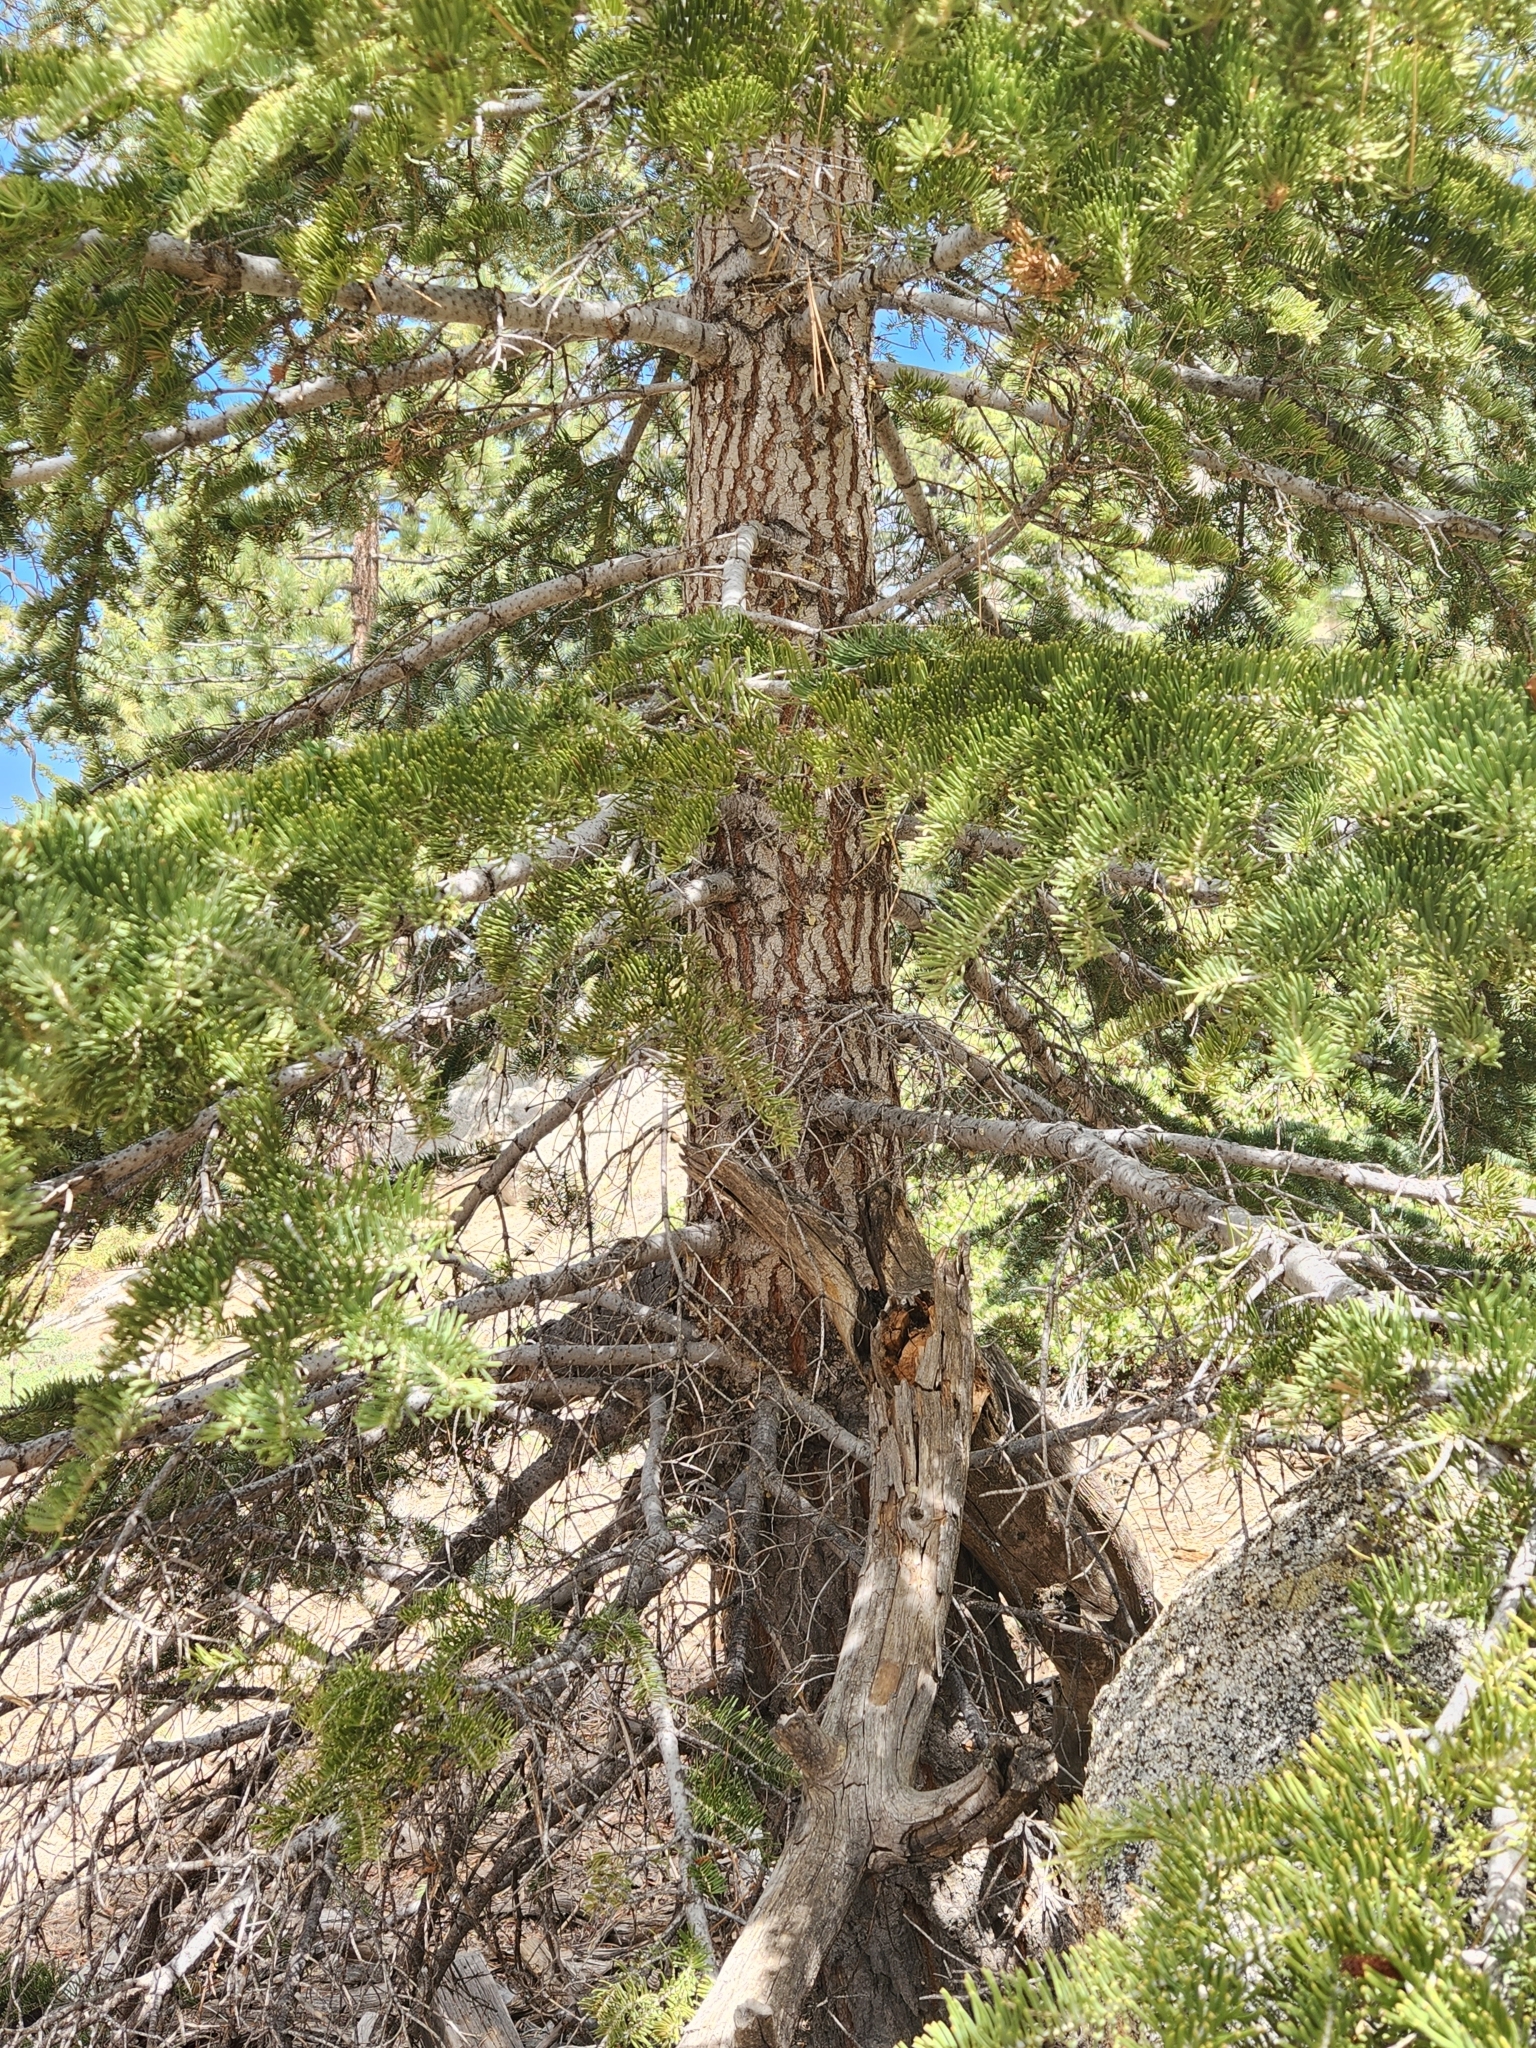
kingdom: Plantae
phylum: Tracheophyta
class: Pinopsida
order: Pinales
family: Pinaceae
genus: Abies
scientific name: Abies concolor
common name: Colorado fir
